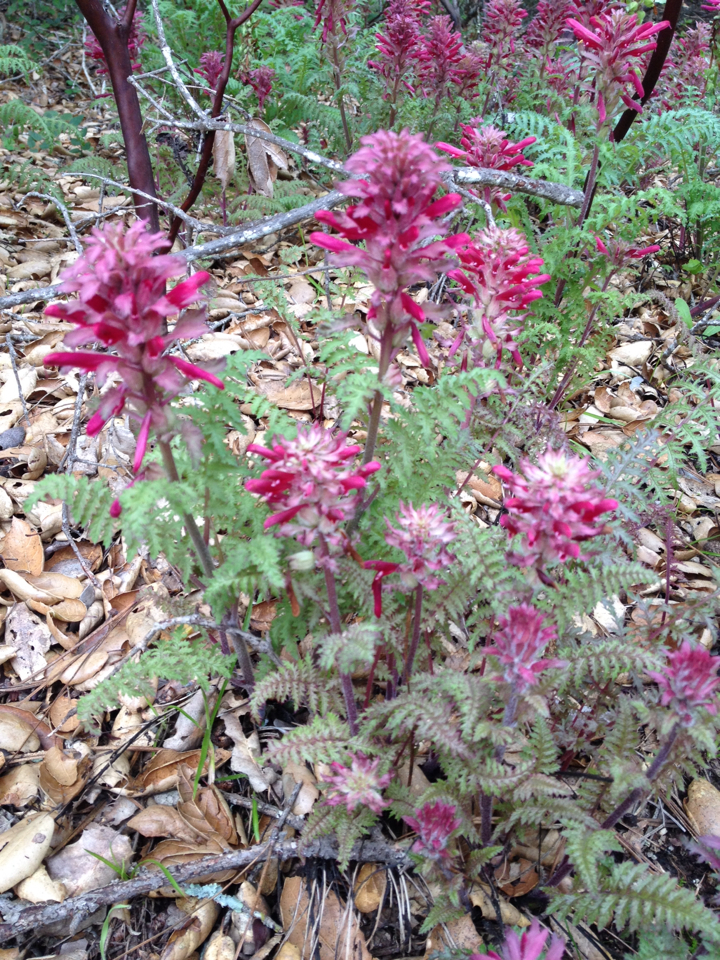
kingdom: Plantae
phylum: Tracheophyta
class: Magnoliopsida
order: Lamiales
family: Orobanchaceae
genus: Pedicularis
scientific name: Pedicularis densiflora
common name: Indian warrior
